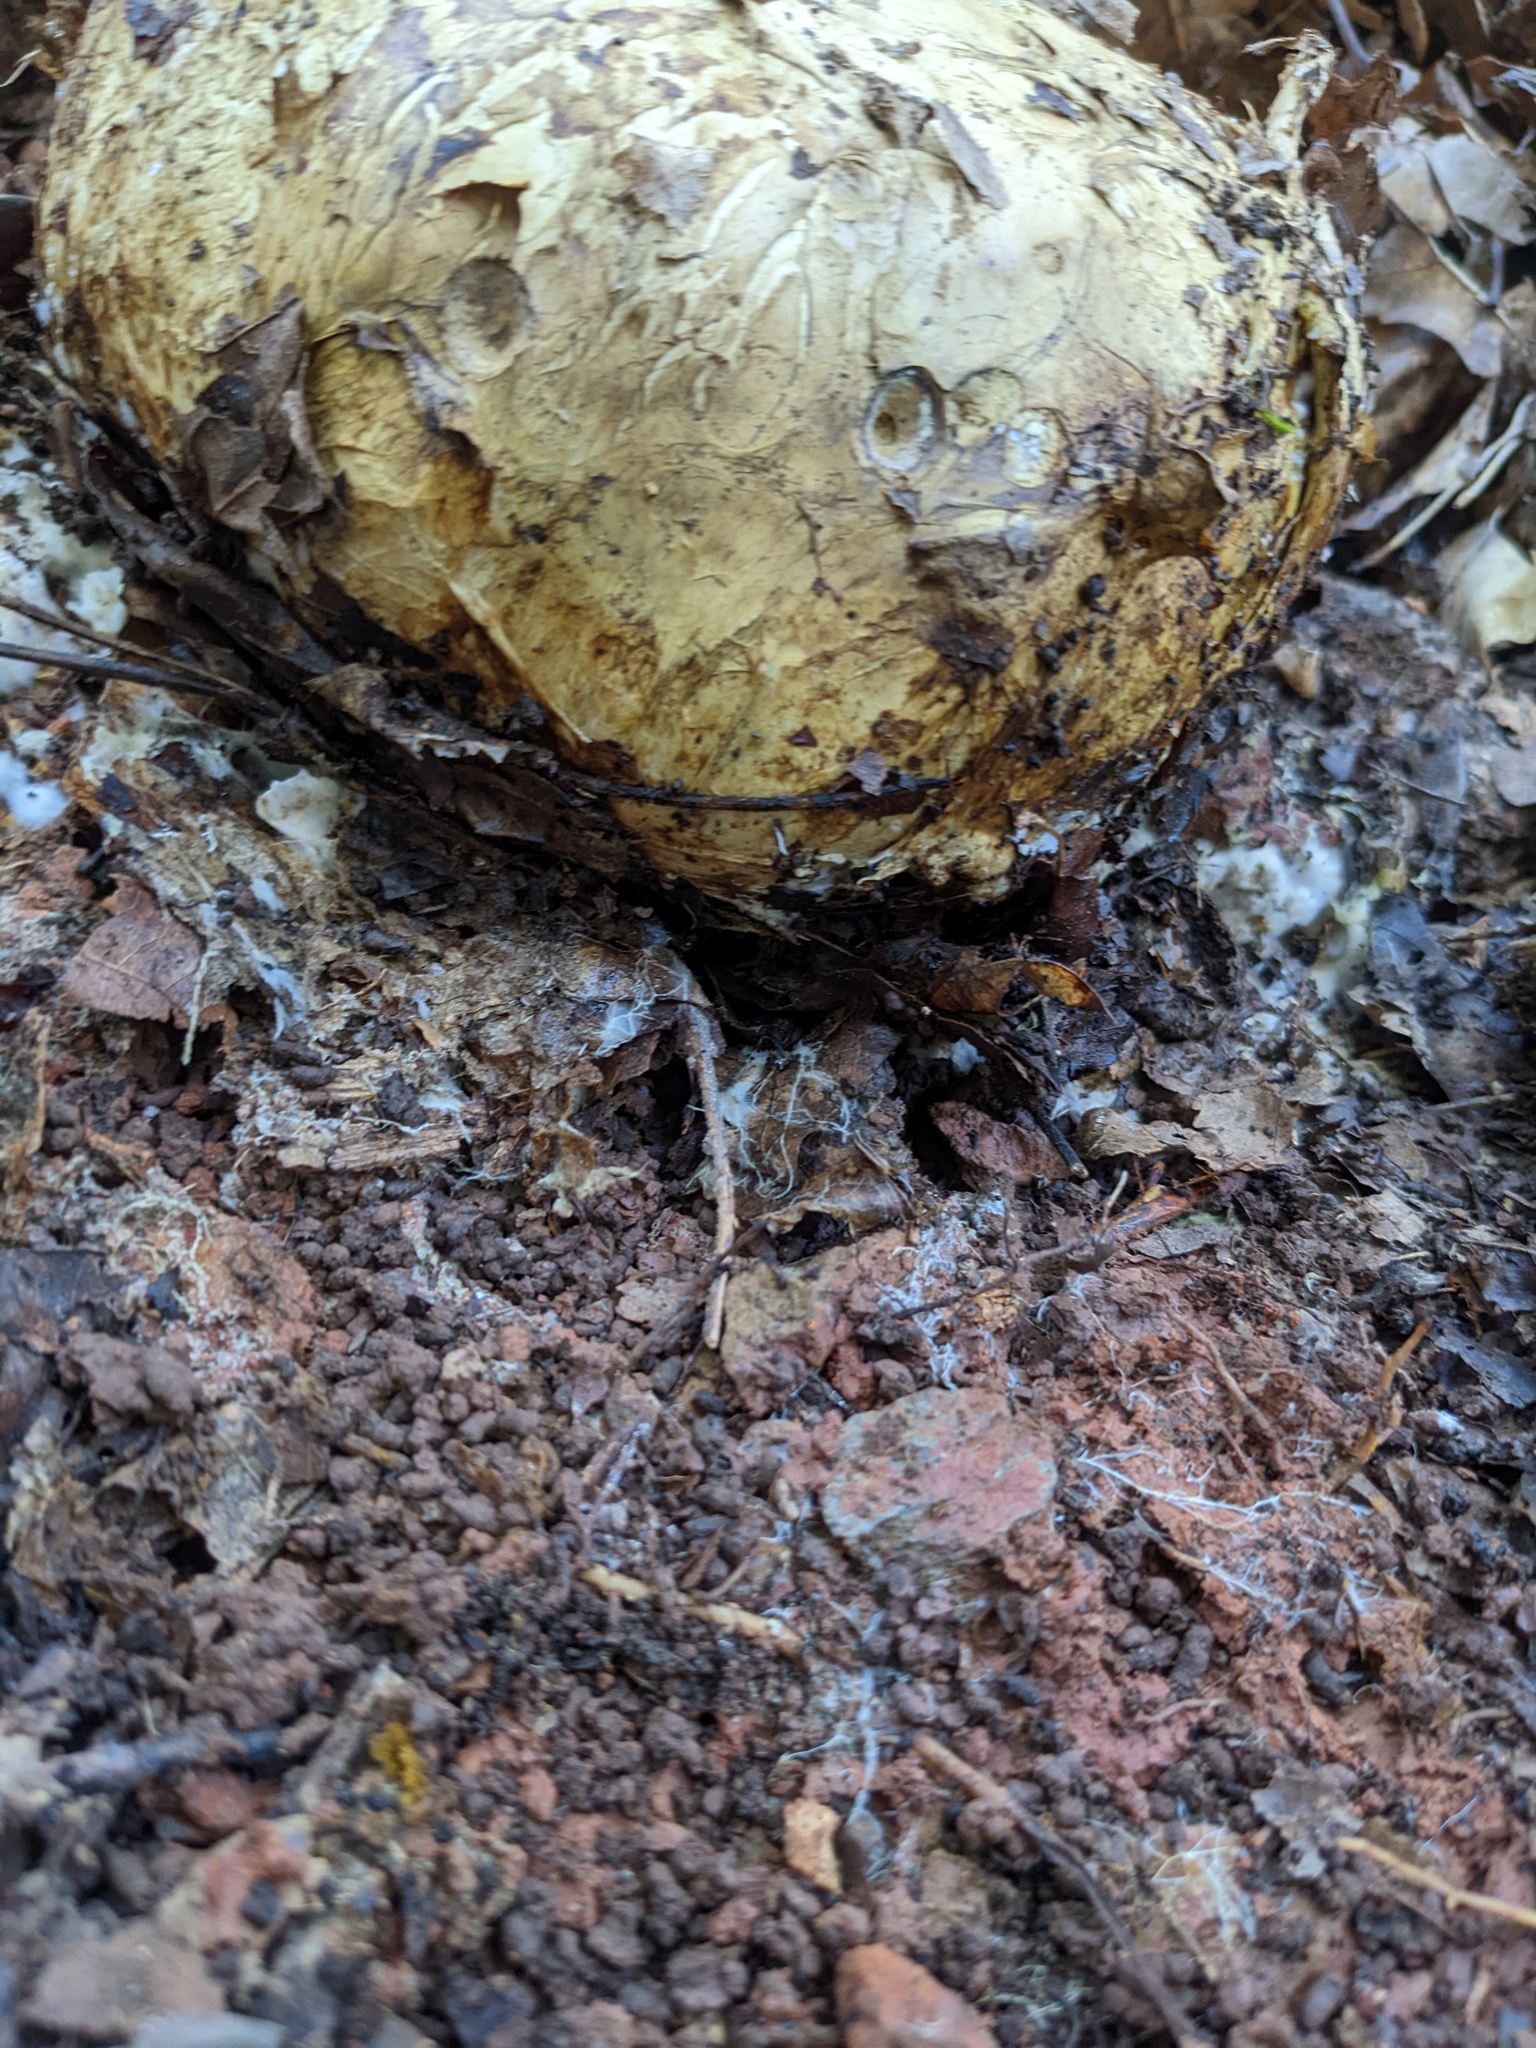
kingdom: Fungi
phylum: Basidiomycota
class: Agaricomycetes
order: Boletales
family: Sclerodermataceae
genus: Scleroderma
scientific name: Scleroderma polyrhizum
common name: Many-rooted earthball
